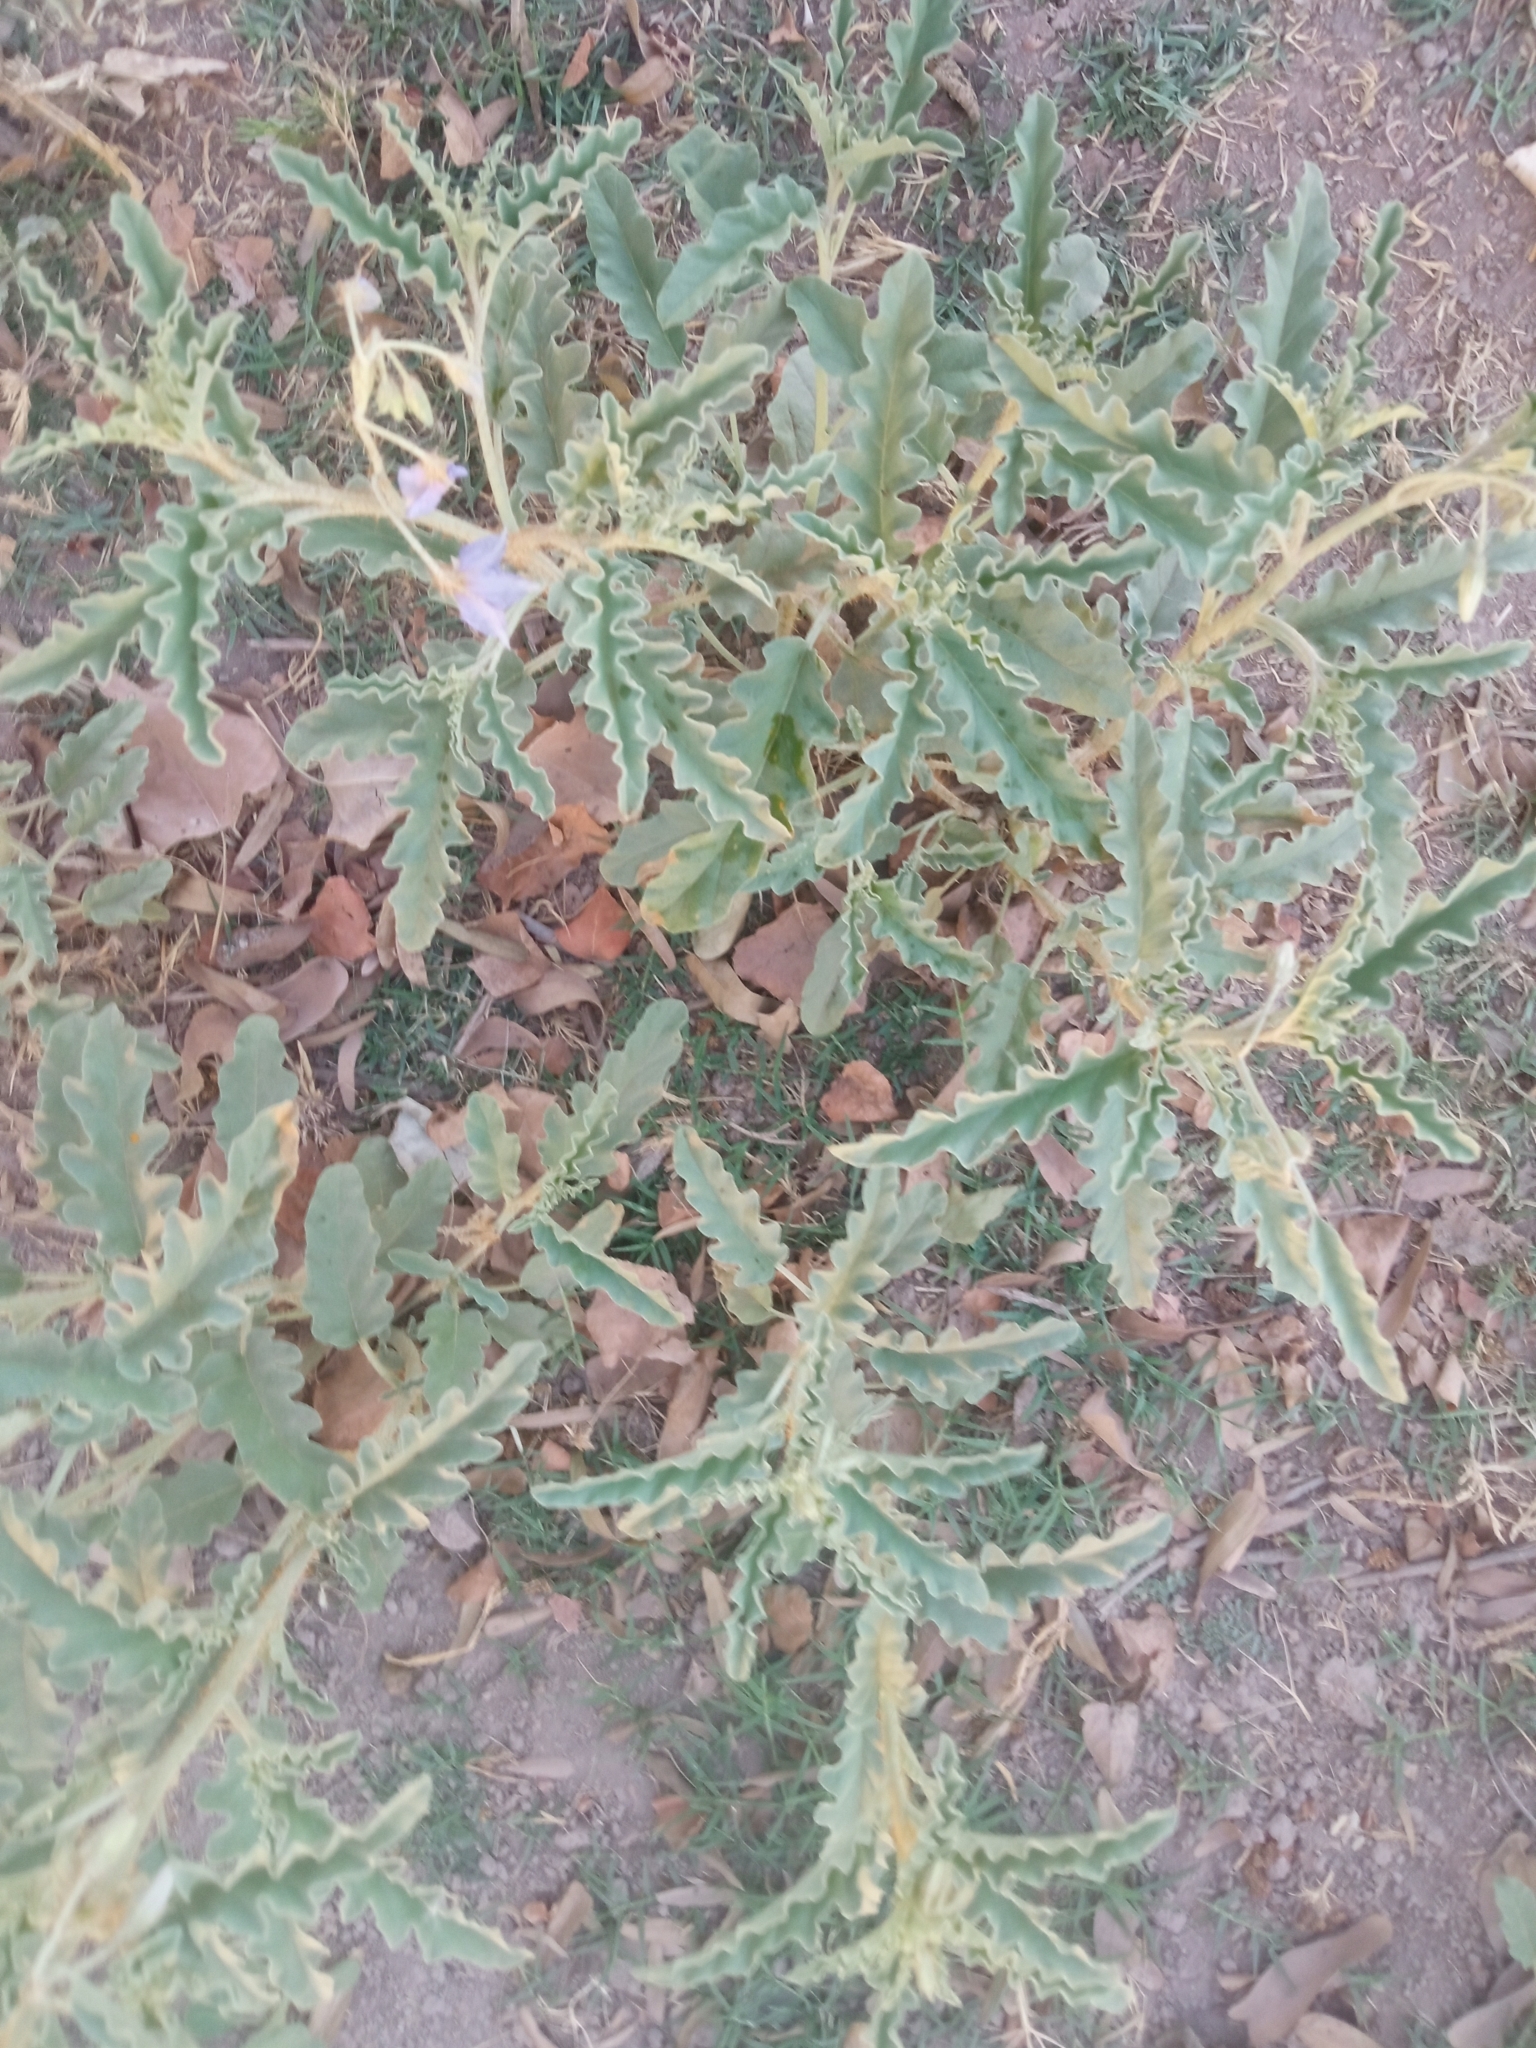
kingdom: Plantae
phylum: Tracheophyta
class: Magnoliopsida
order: Solanales
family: Solanaceae
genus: Solanum
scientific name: Solanum elaeagnifolium
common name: Silverleaf nightshade
